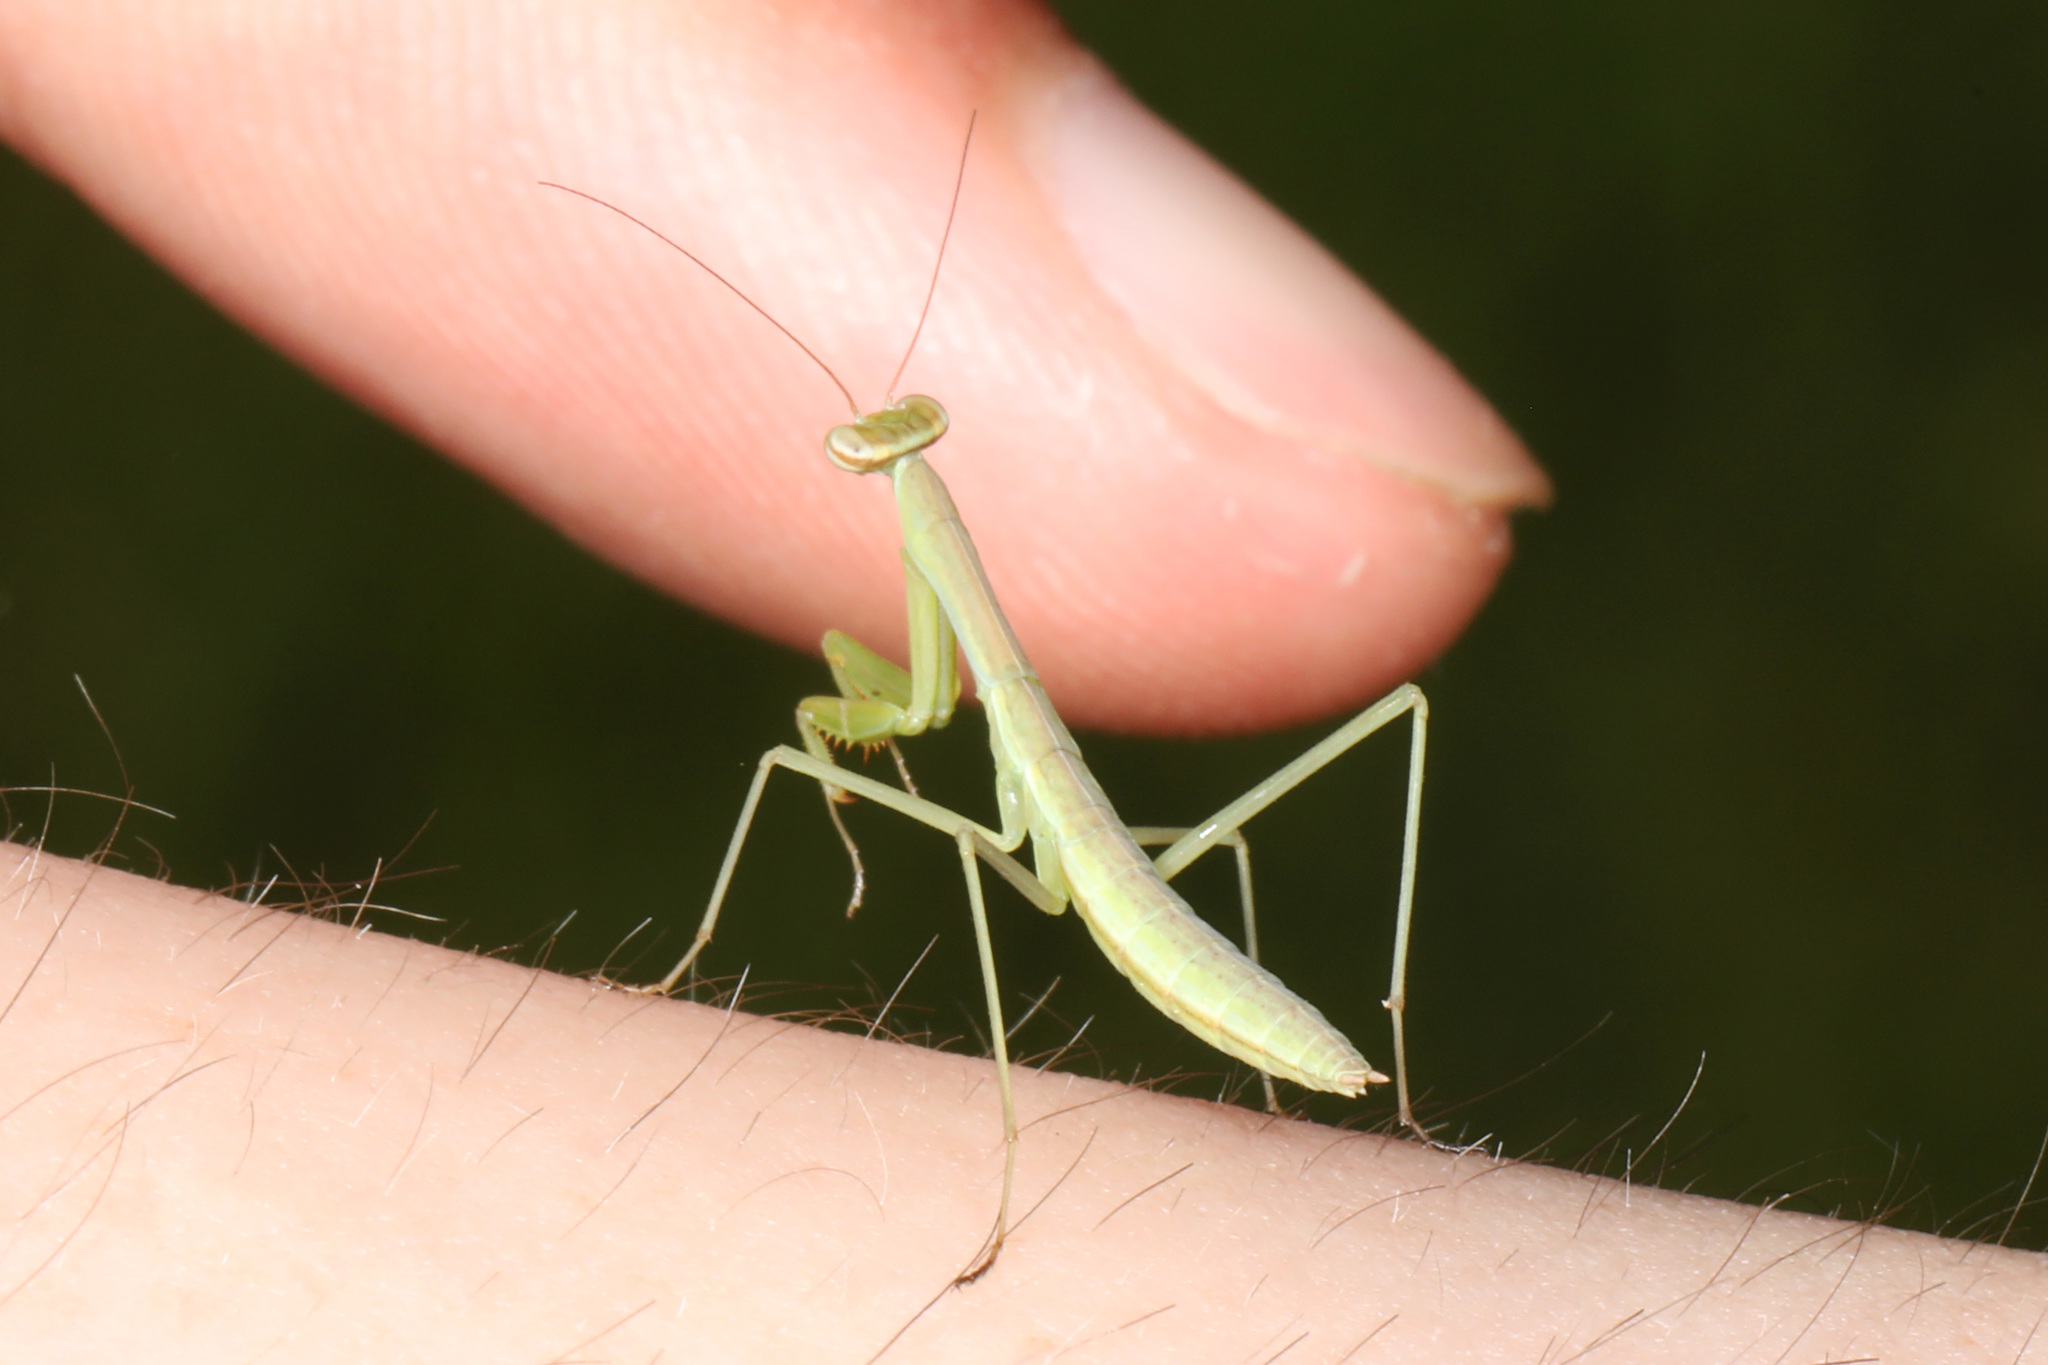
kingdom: Animalia
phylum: Arthropoda
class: Insecta
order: Mantodea
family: Mantidae
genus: Tenodera
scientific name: Tenodera sinensis
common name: Chinese mantis
